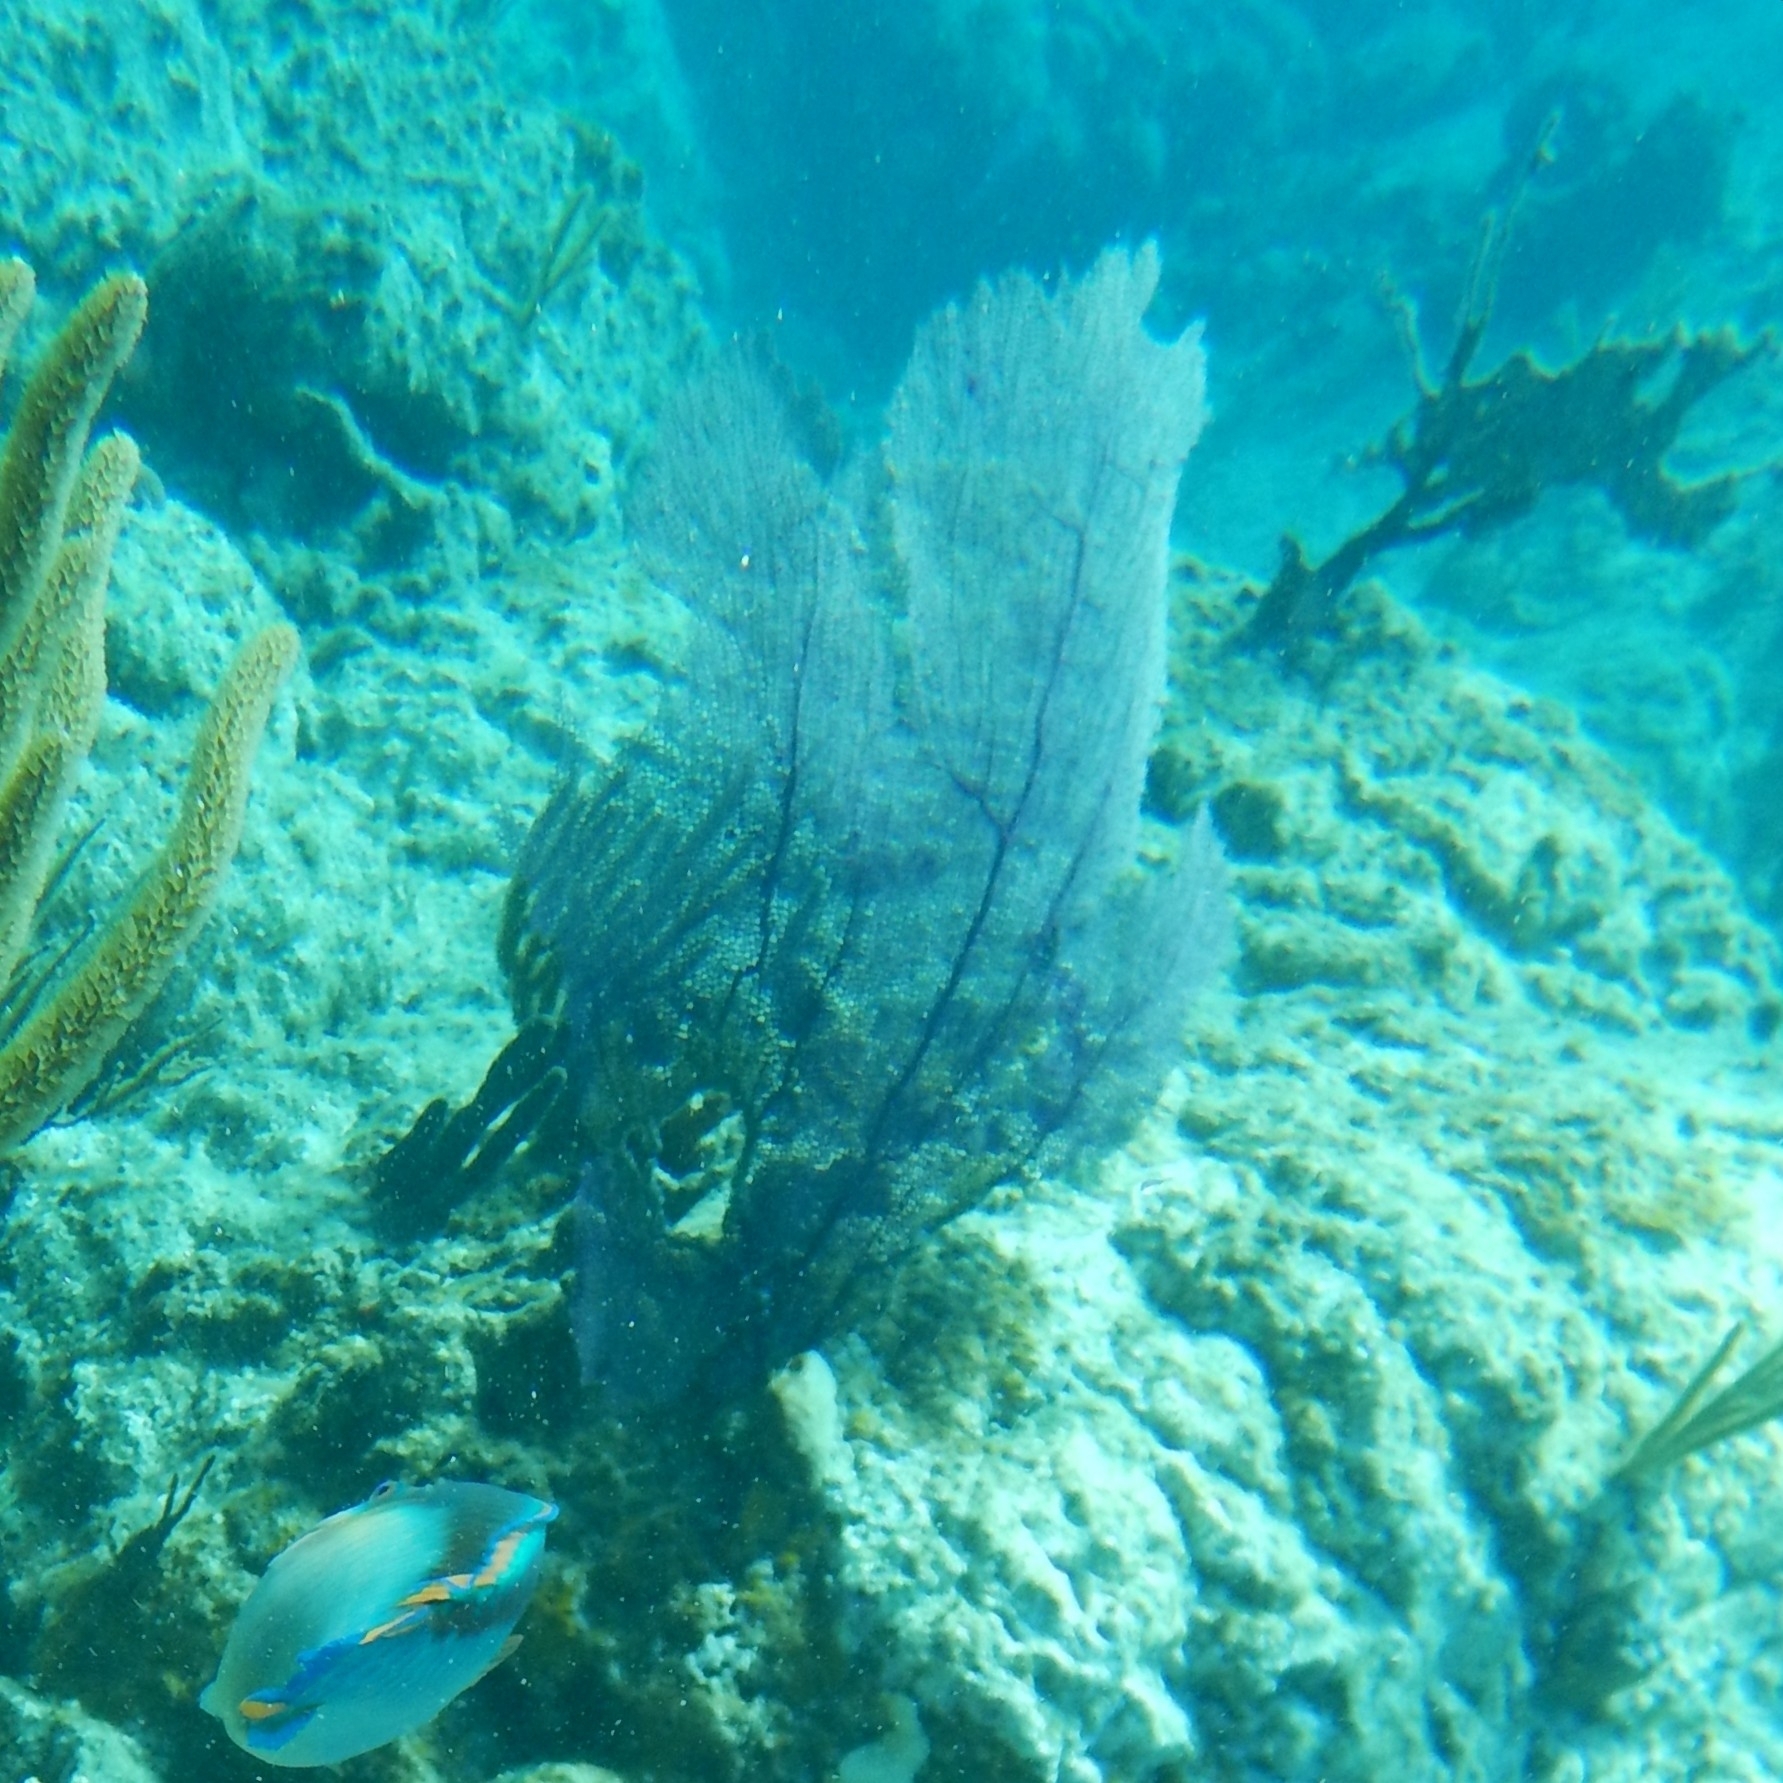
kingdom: Animalia
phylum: Cnidaria
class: Anthozoa
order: Malacalcyonacea
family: Gorgoniidae
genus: Gorgonia
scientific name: Gorgonia ventalina
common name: Common sea fan
